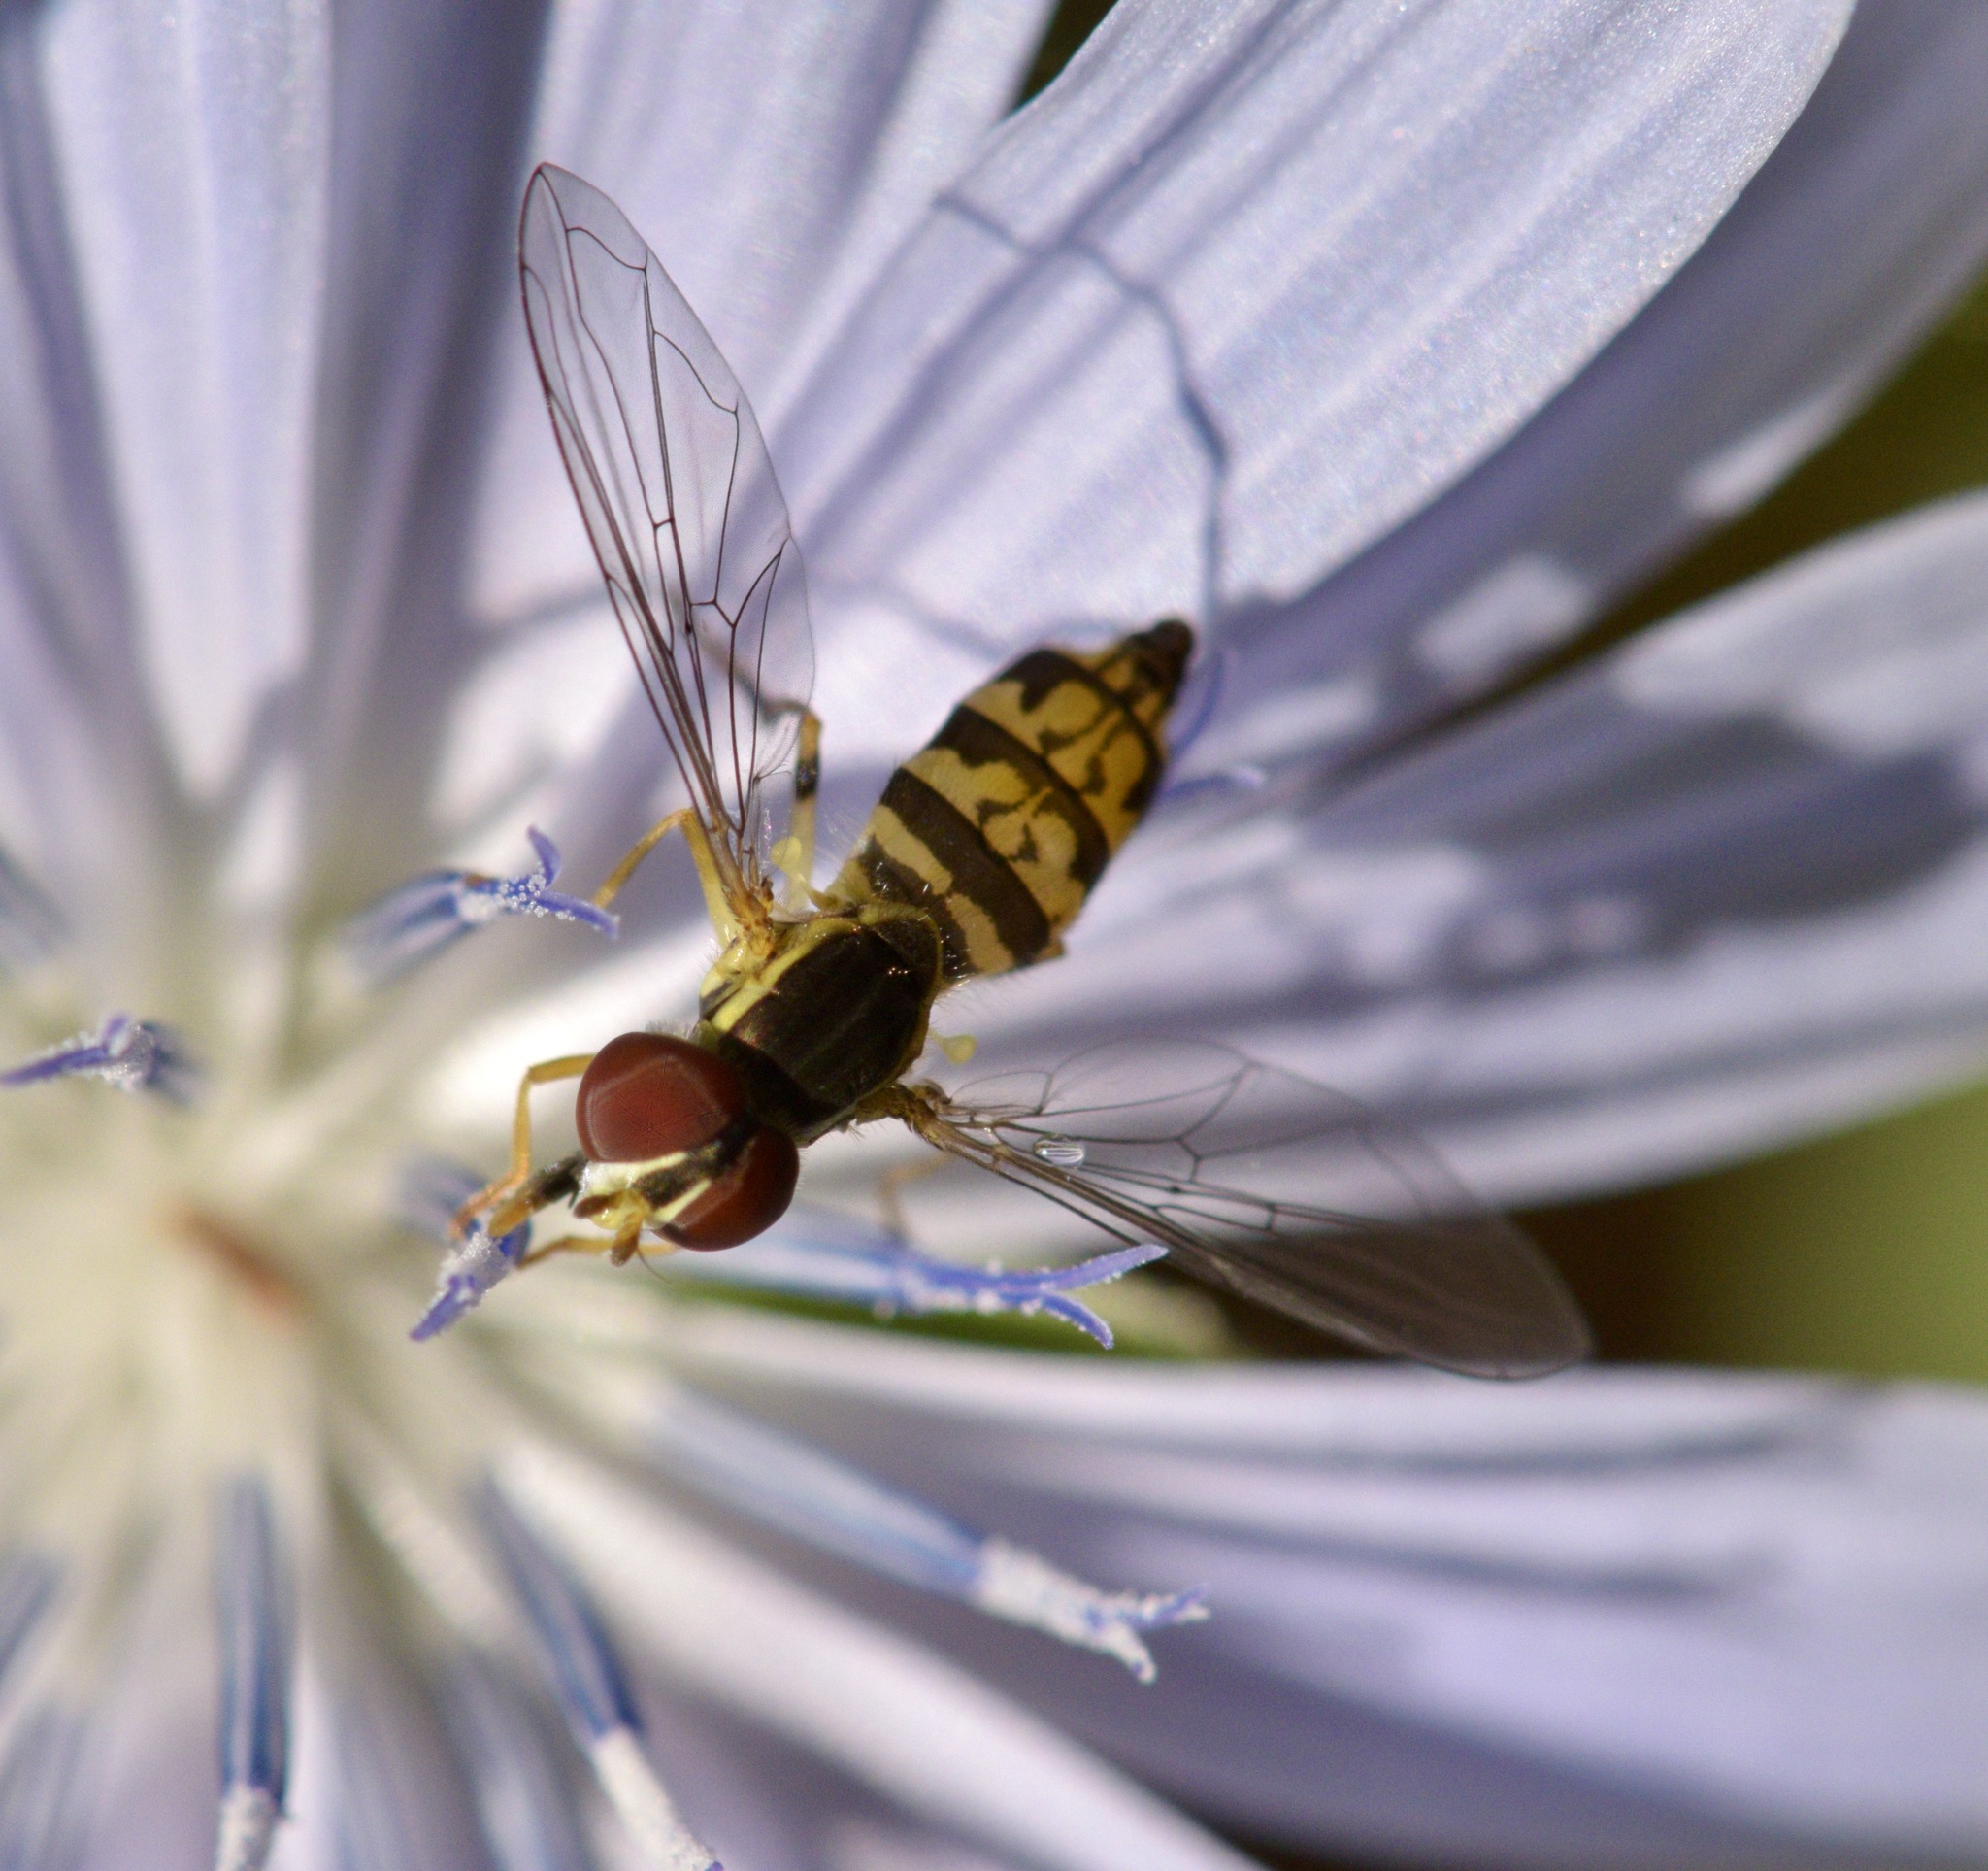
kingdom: Animalia
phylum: Arthropoda
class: Insecta
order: Diptera
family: Syrphidae
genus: Toxomerus
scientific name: Toxomerus geminatus
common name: Eastern calligrapher
